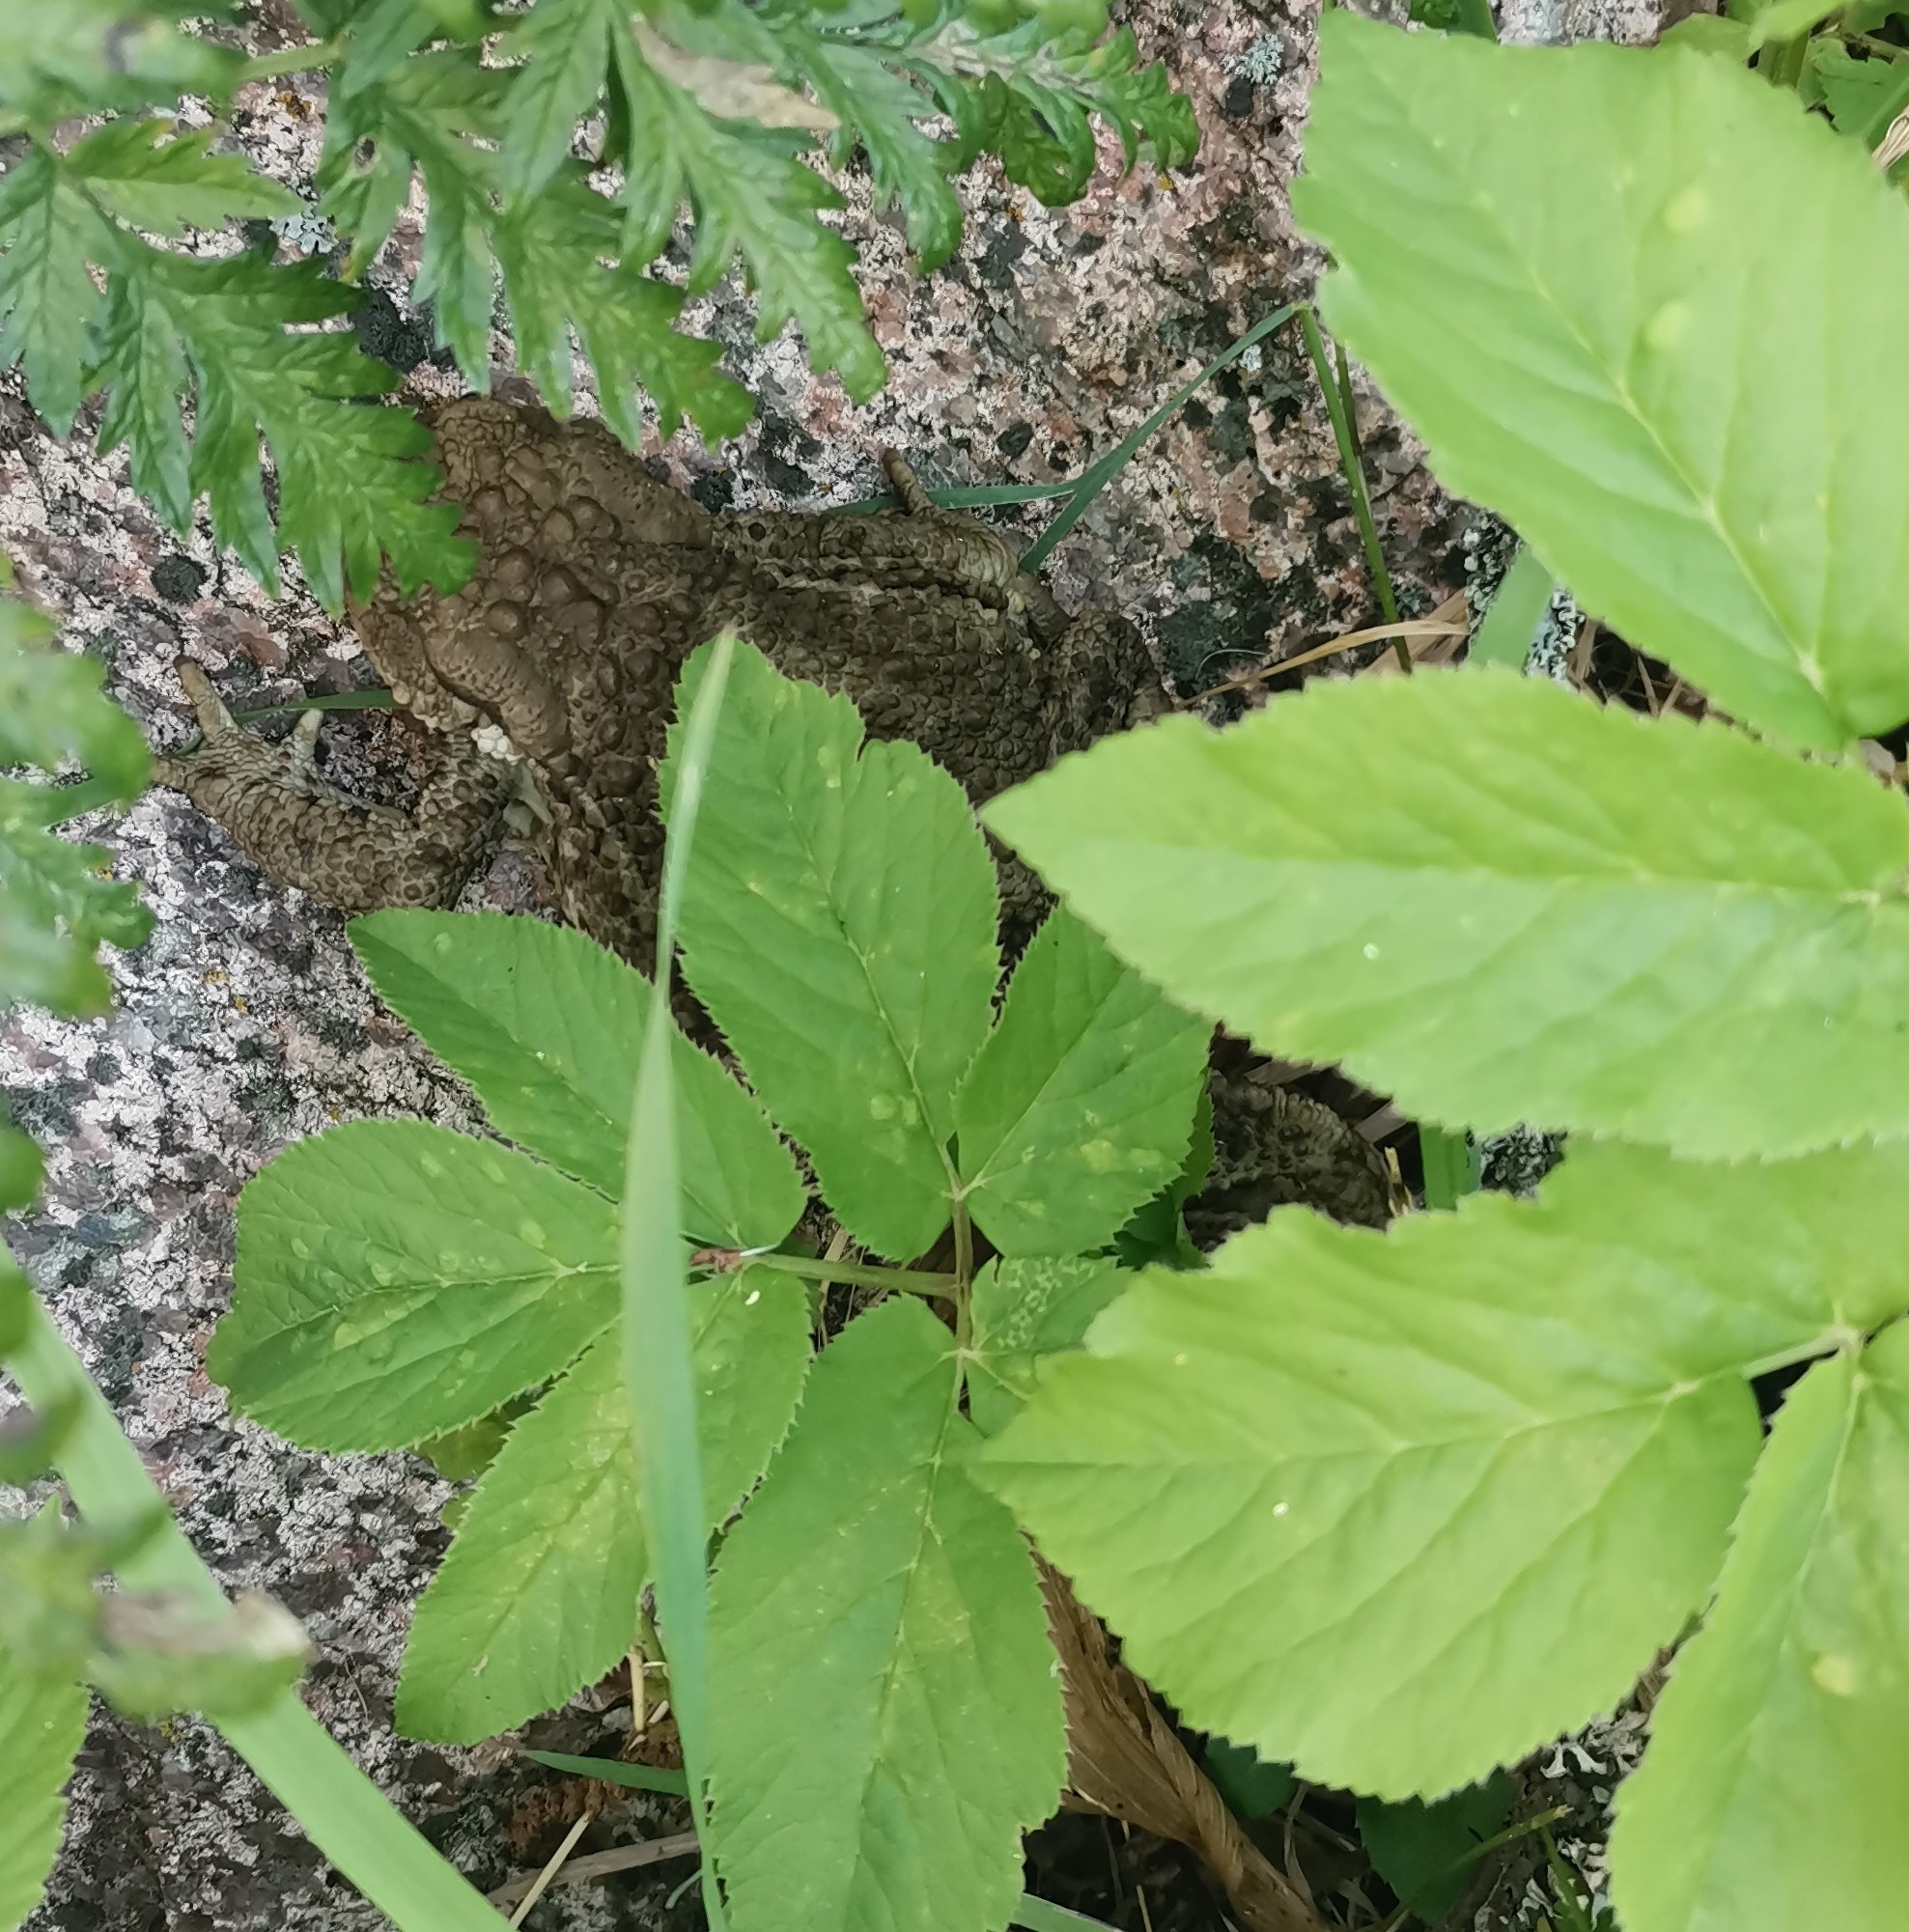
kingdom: Animalia
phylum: Chordata
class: Amphibia
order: Anura
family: Bufonidae
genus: Bufo
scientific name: Bufo bufo
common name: Common toad
